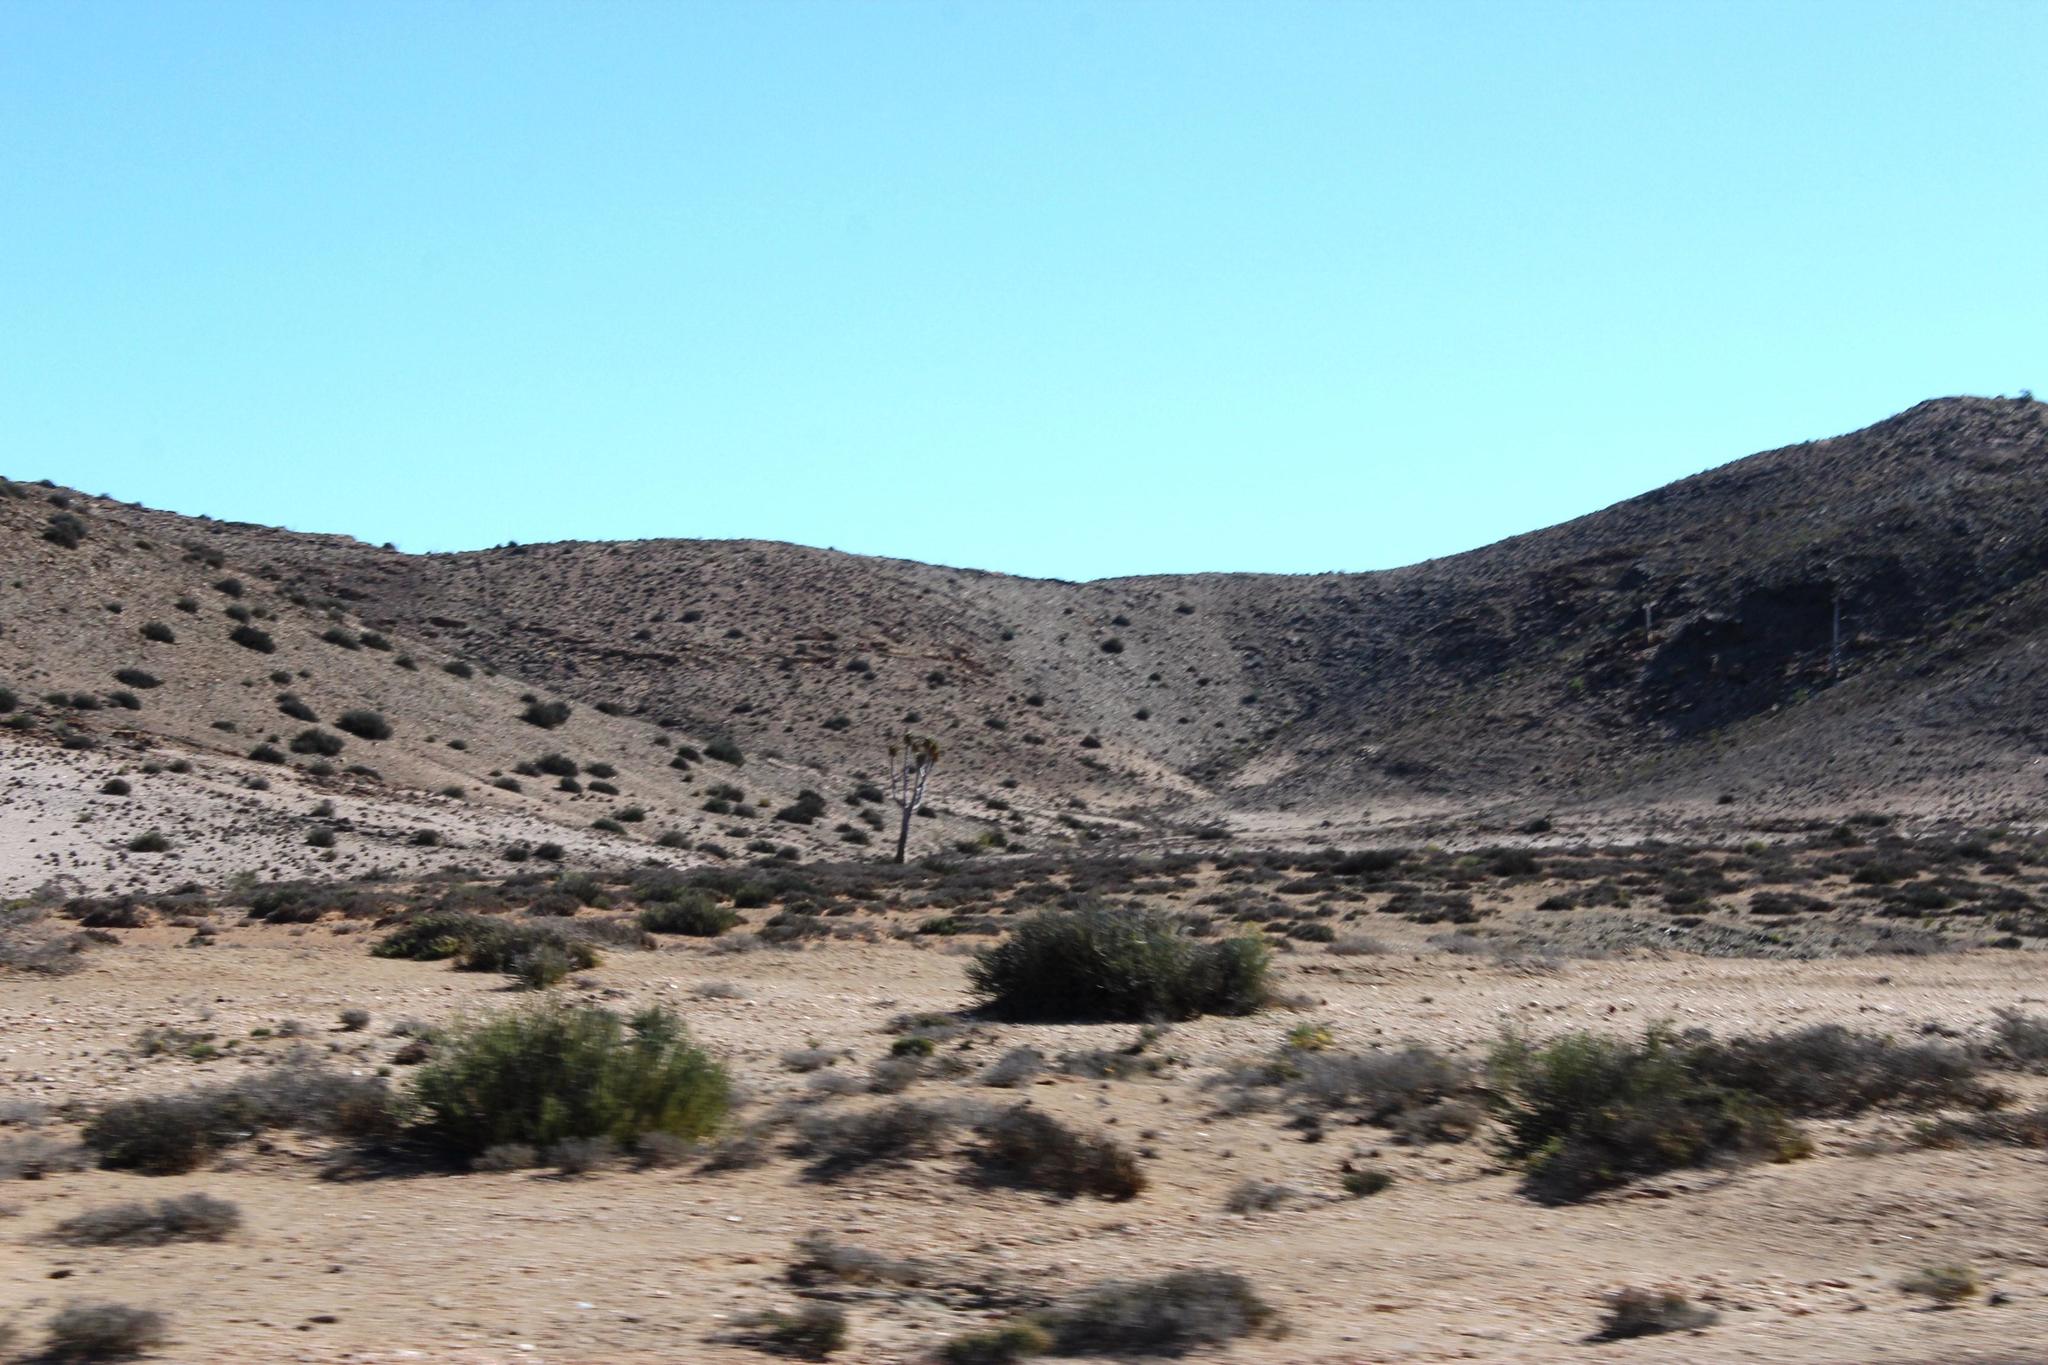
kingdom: Plantae
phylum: Tracheophyta
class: Liliopsida
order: Asparagales
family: Asphodelaceae
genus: Aloidendron
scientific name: Aloidendron pillansii
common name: Bastard quiver tree
